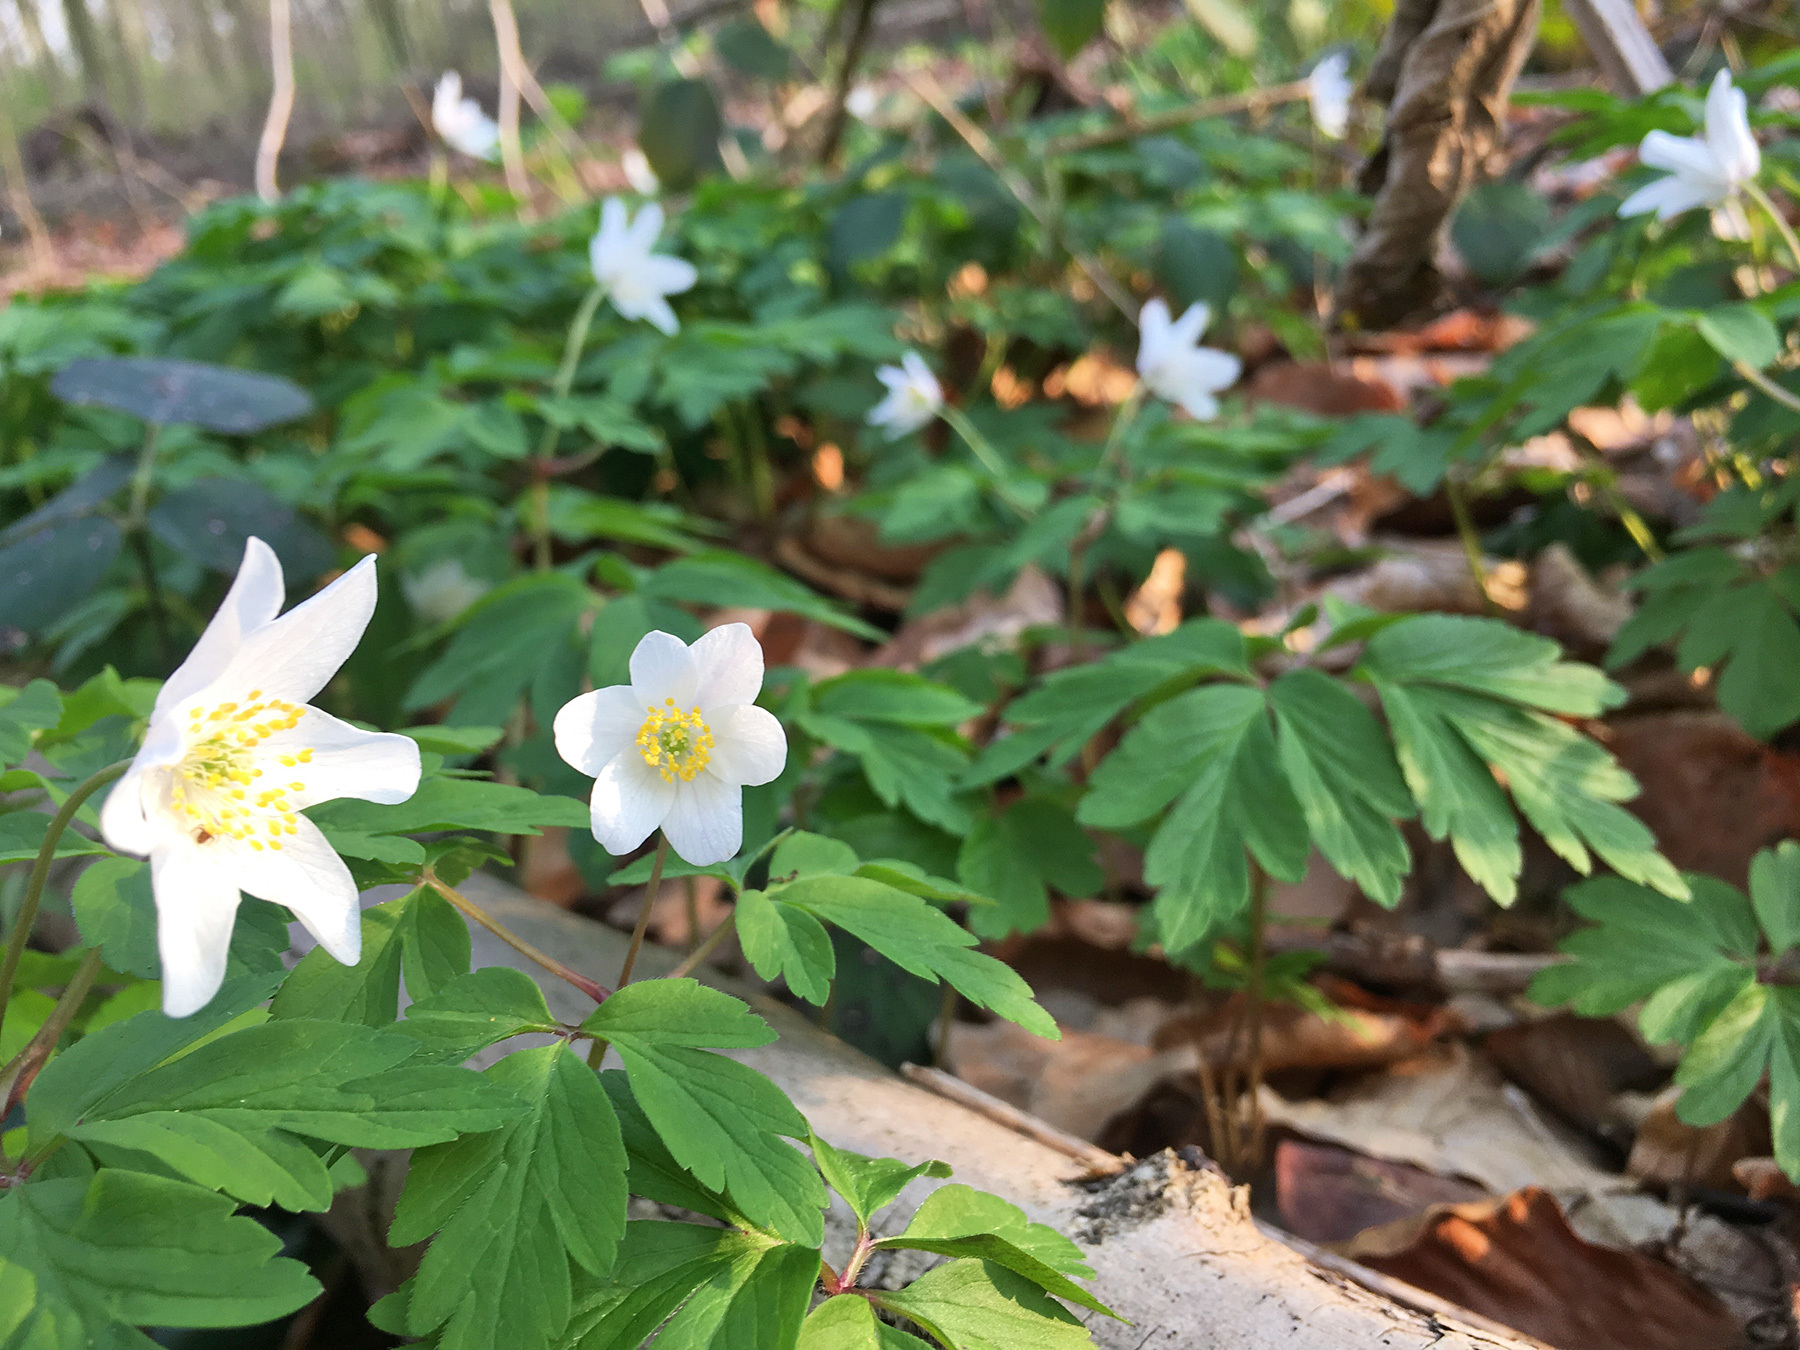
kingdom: Plantae
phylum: Tracheophyta
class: Magnoliopsida
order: Ranunculales
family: Ranunculaceae
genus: Anemone
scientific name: Anemone nemorosa
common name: Wood anemone
